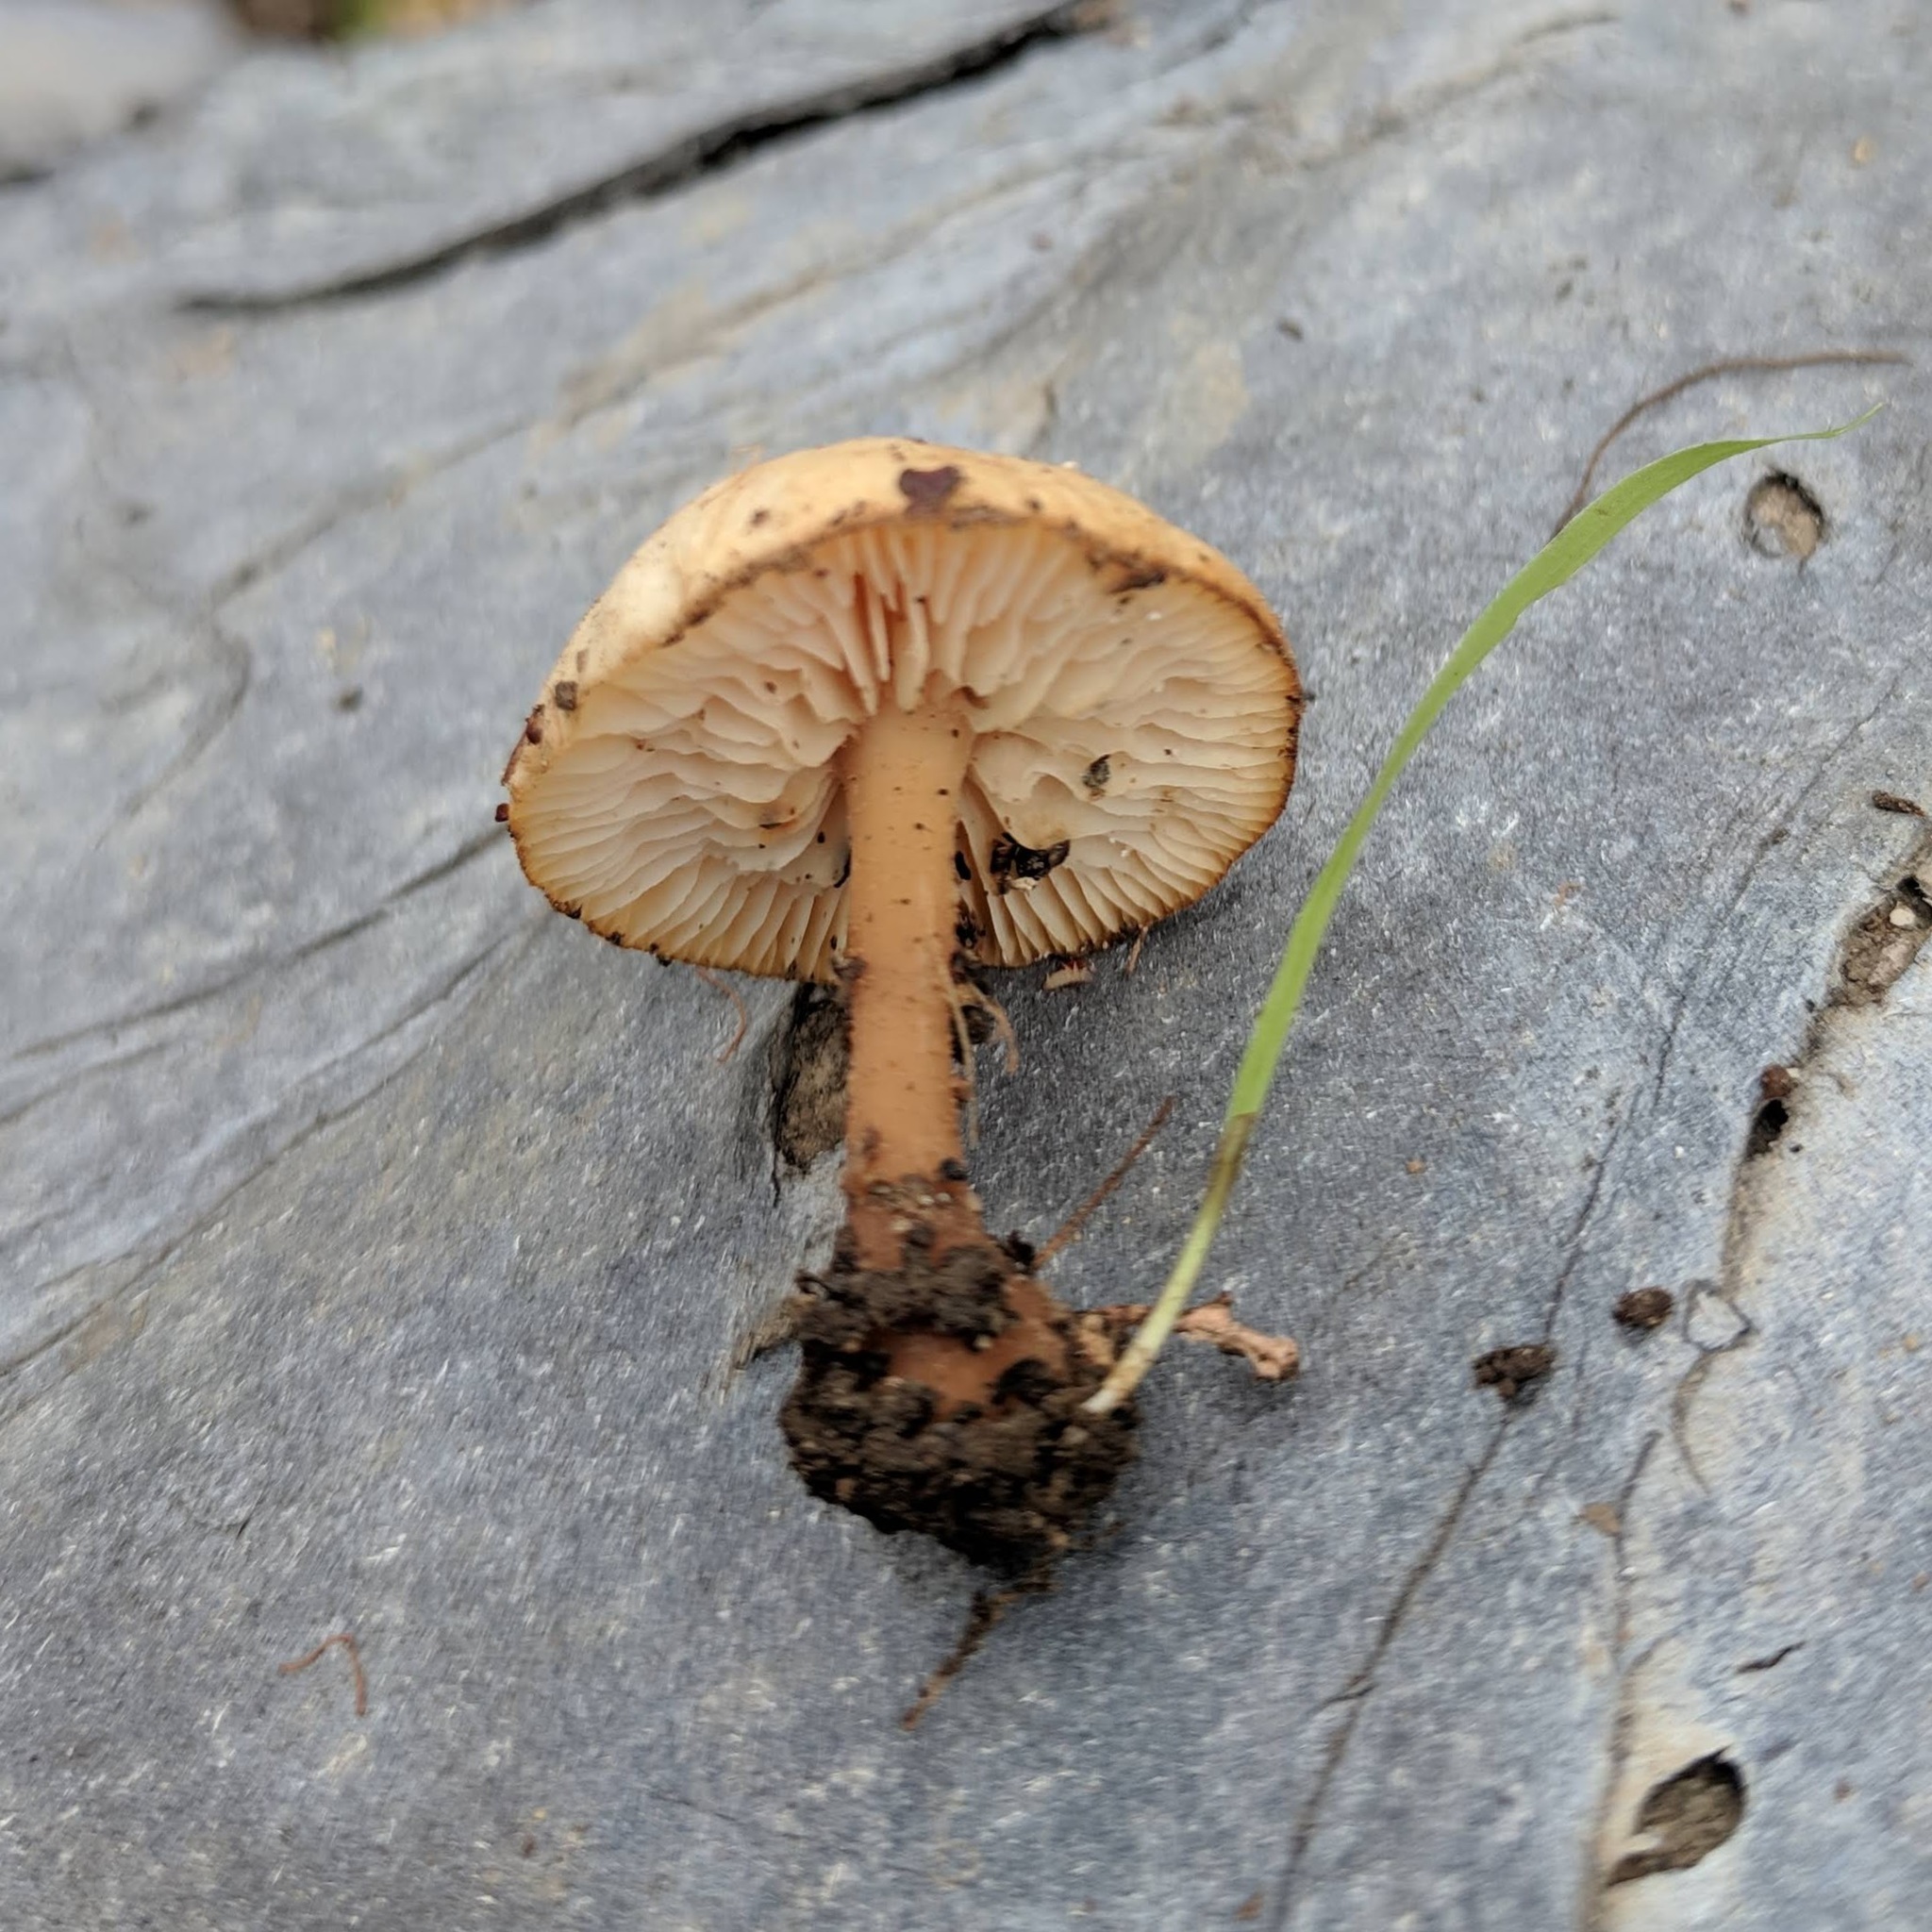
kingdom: Fungi
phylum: Basidiomycota
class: Agaricomycetes
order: Agaricales
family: Omphalotaceae
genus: Gymnopus
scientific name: Gymnopus dryophilus
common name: Penny top
